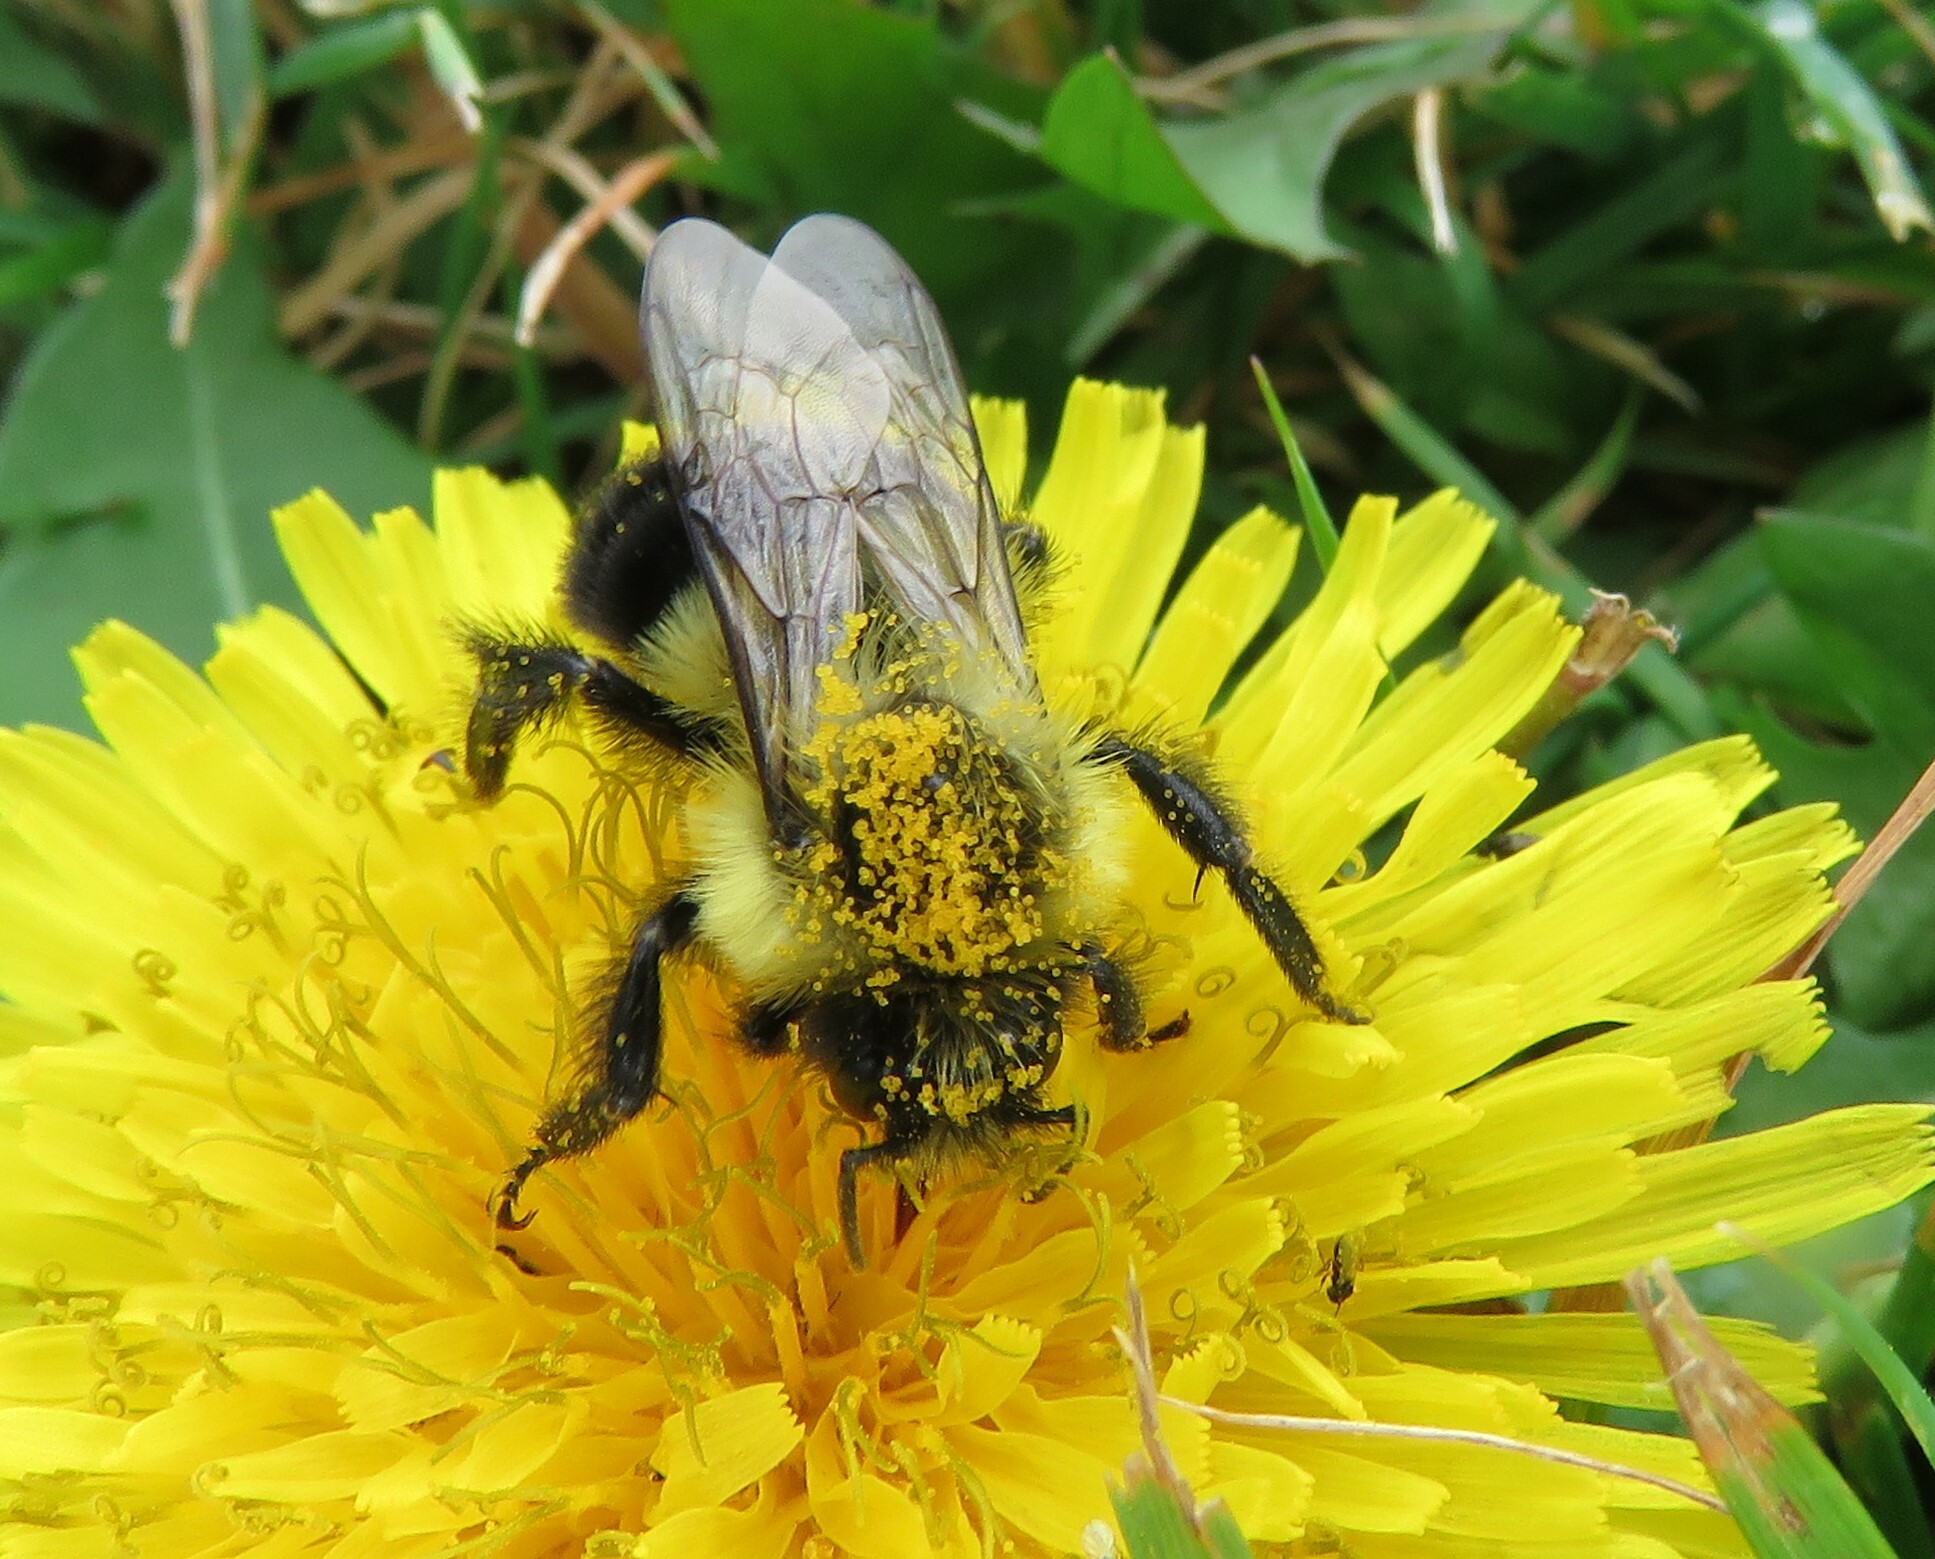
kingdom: Animalia
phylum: Arthropoda
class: Insecta
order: Hymenoptera
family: Apidae
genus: Bombus
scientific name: Bombus impatiens
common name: Common eastern bumble bee
